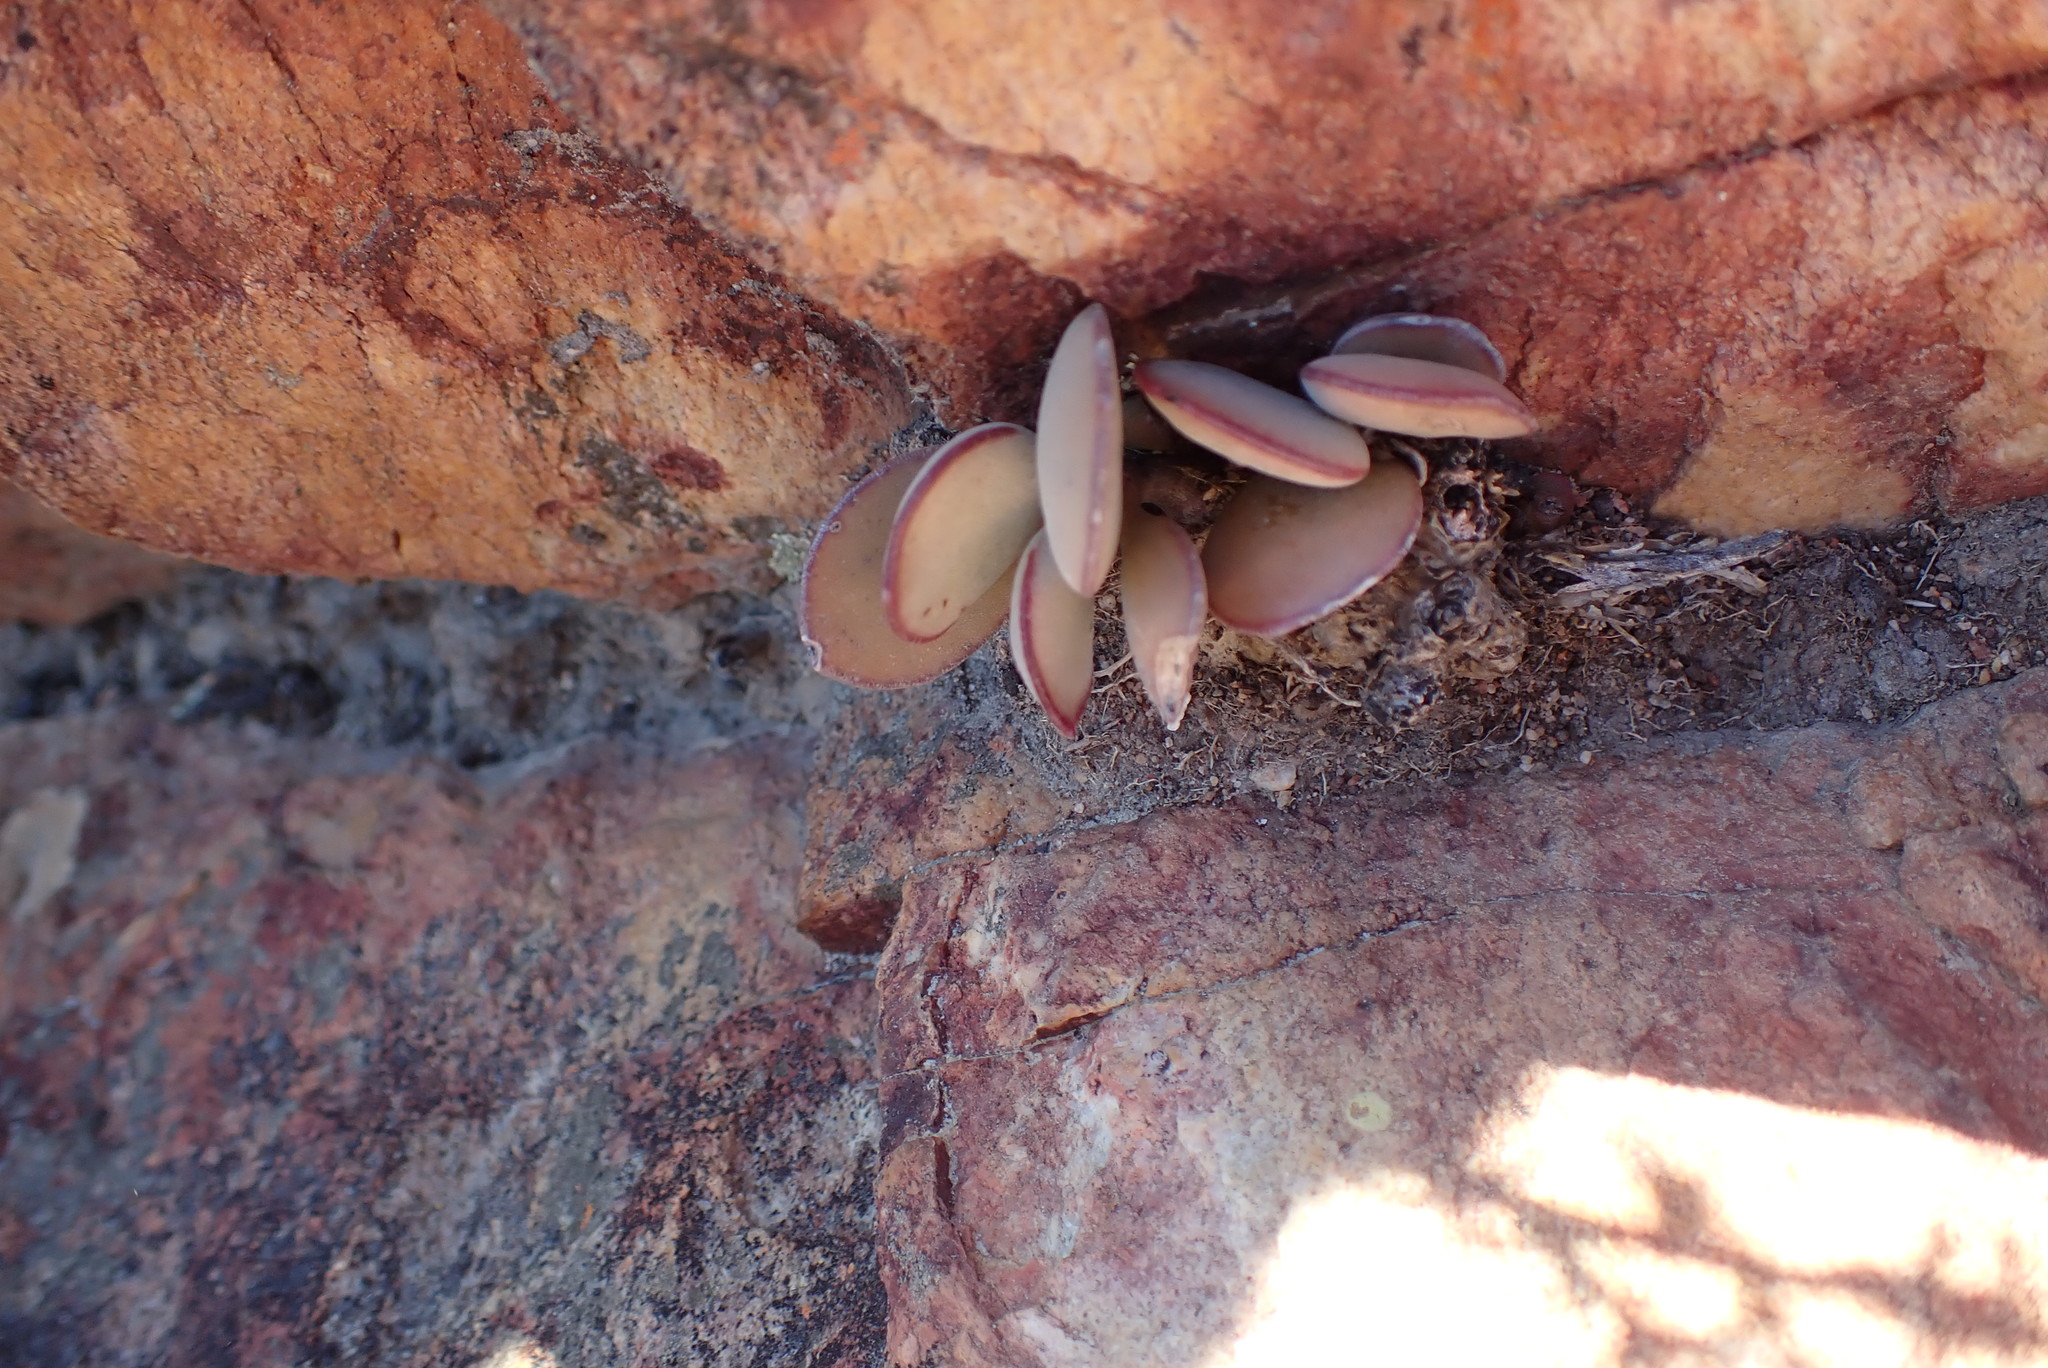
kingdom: Plantae
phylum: Tracheophyta
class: Magnoliopsida
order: Saxifragales
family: Crassulaceae
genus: Adromischus
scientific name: Adromischus maculatus
